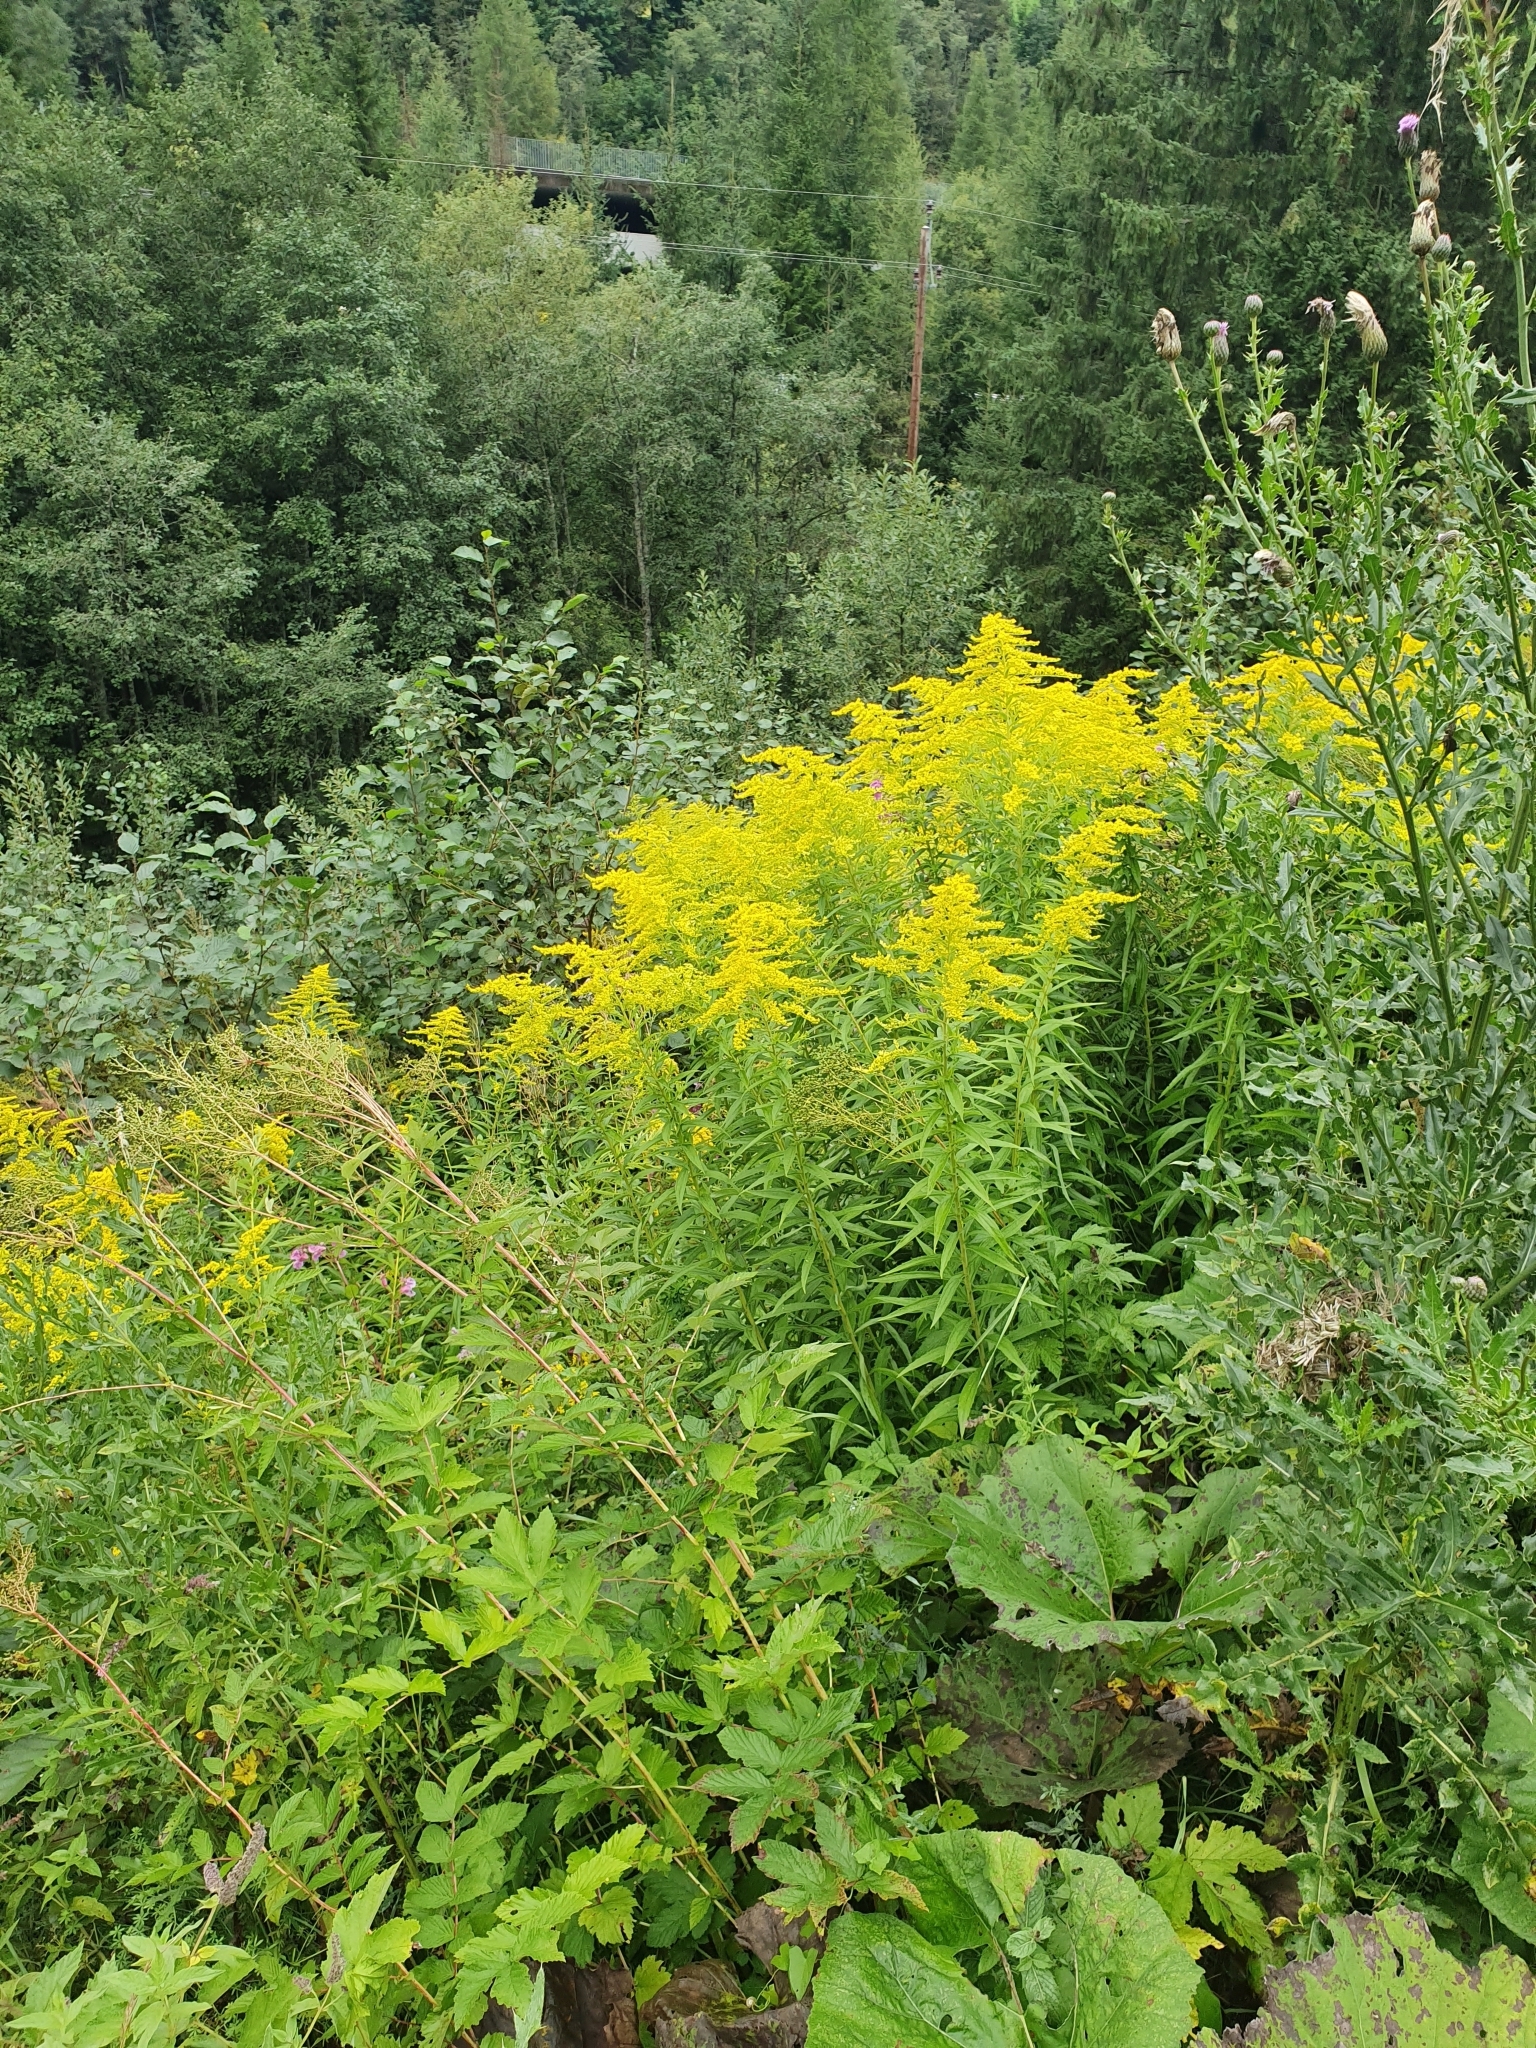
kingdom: Plantae
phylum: Tracheophyta
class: Magnoliopsida
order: Asterales
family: Asteraceae
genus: Solidago
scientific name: Solidago canadensis
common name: Canada goldenrod
